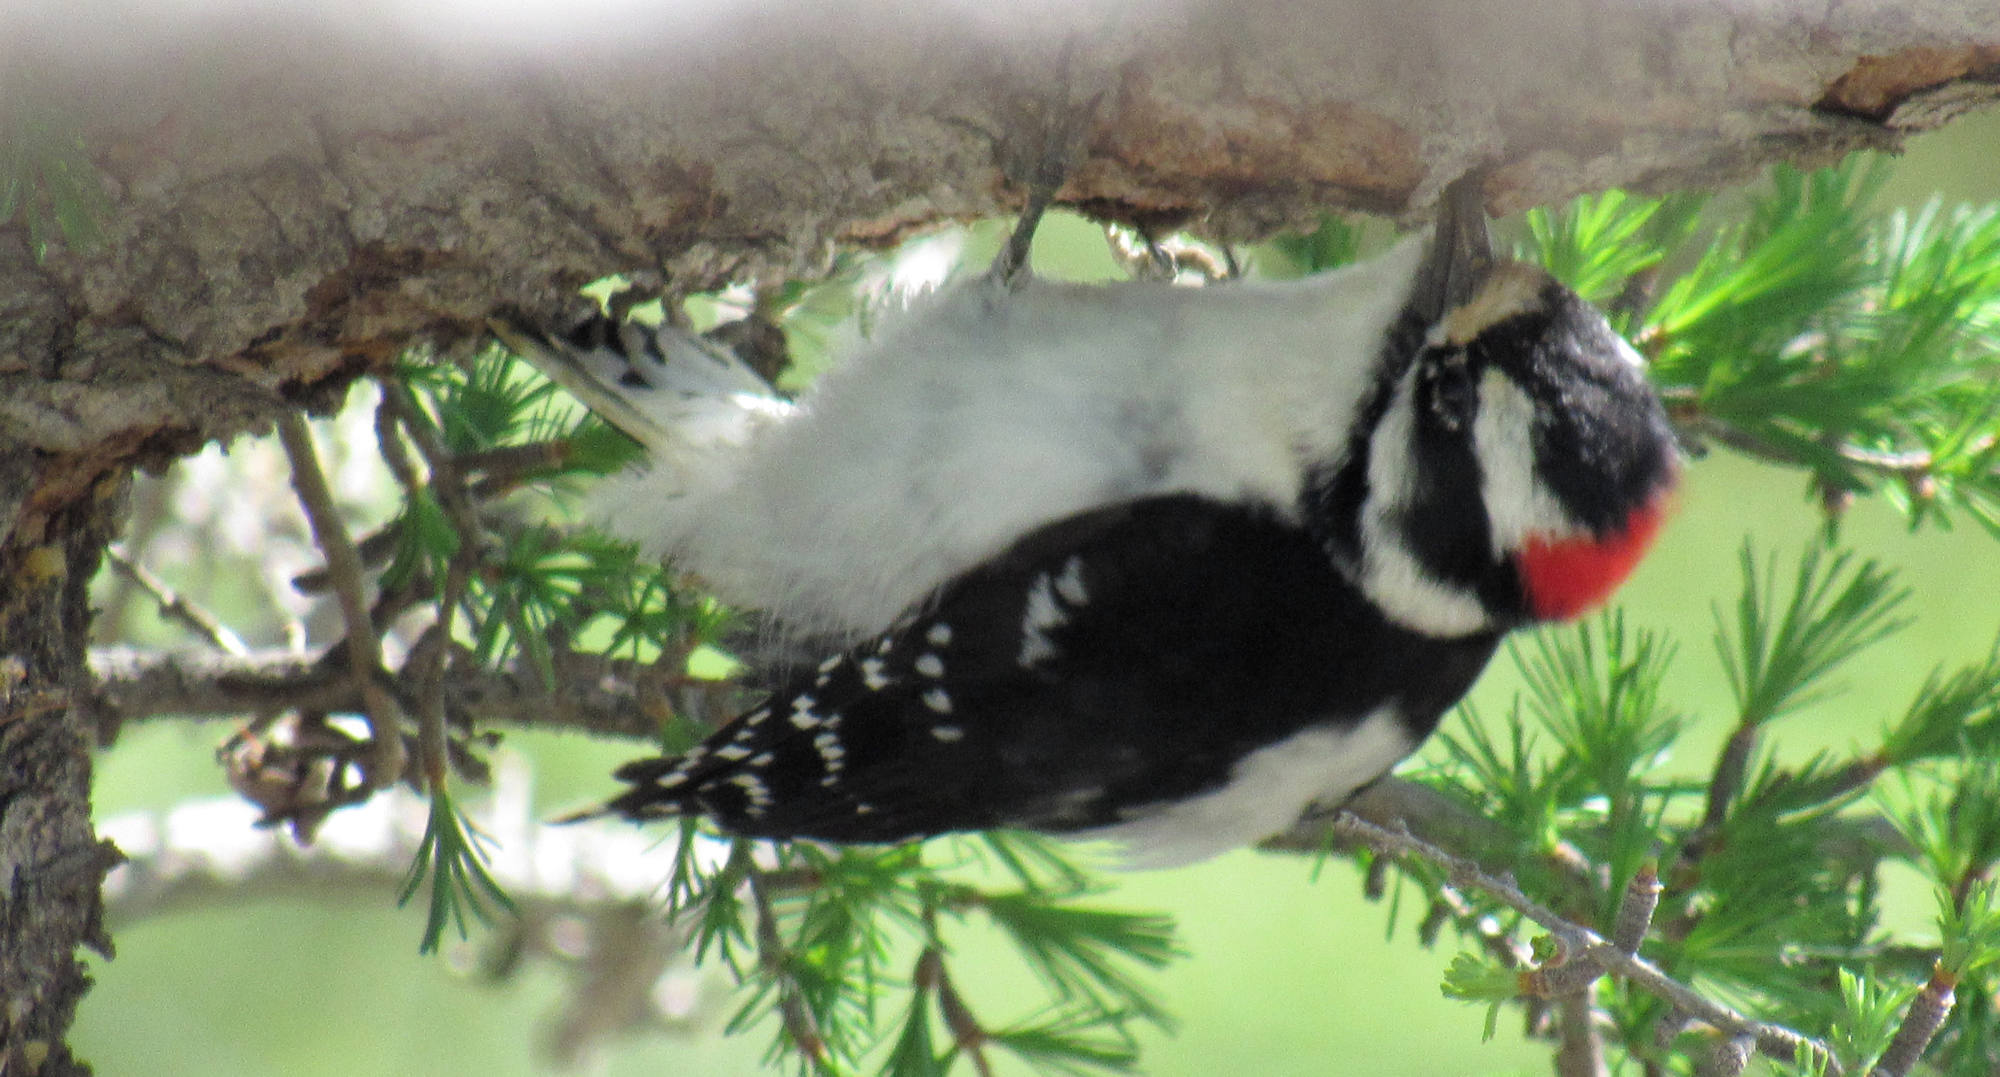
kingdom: Animalia
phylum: Chordata
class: Aves
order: Piciformes
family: Picidae
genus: Dryobates
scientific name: Dryobates pubescens
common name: Downy woodpecker
